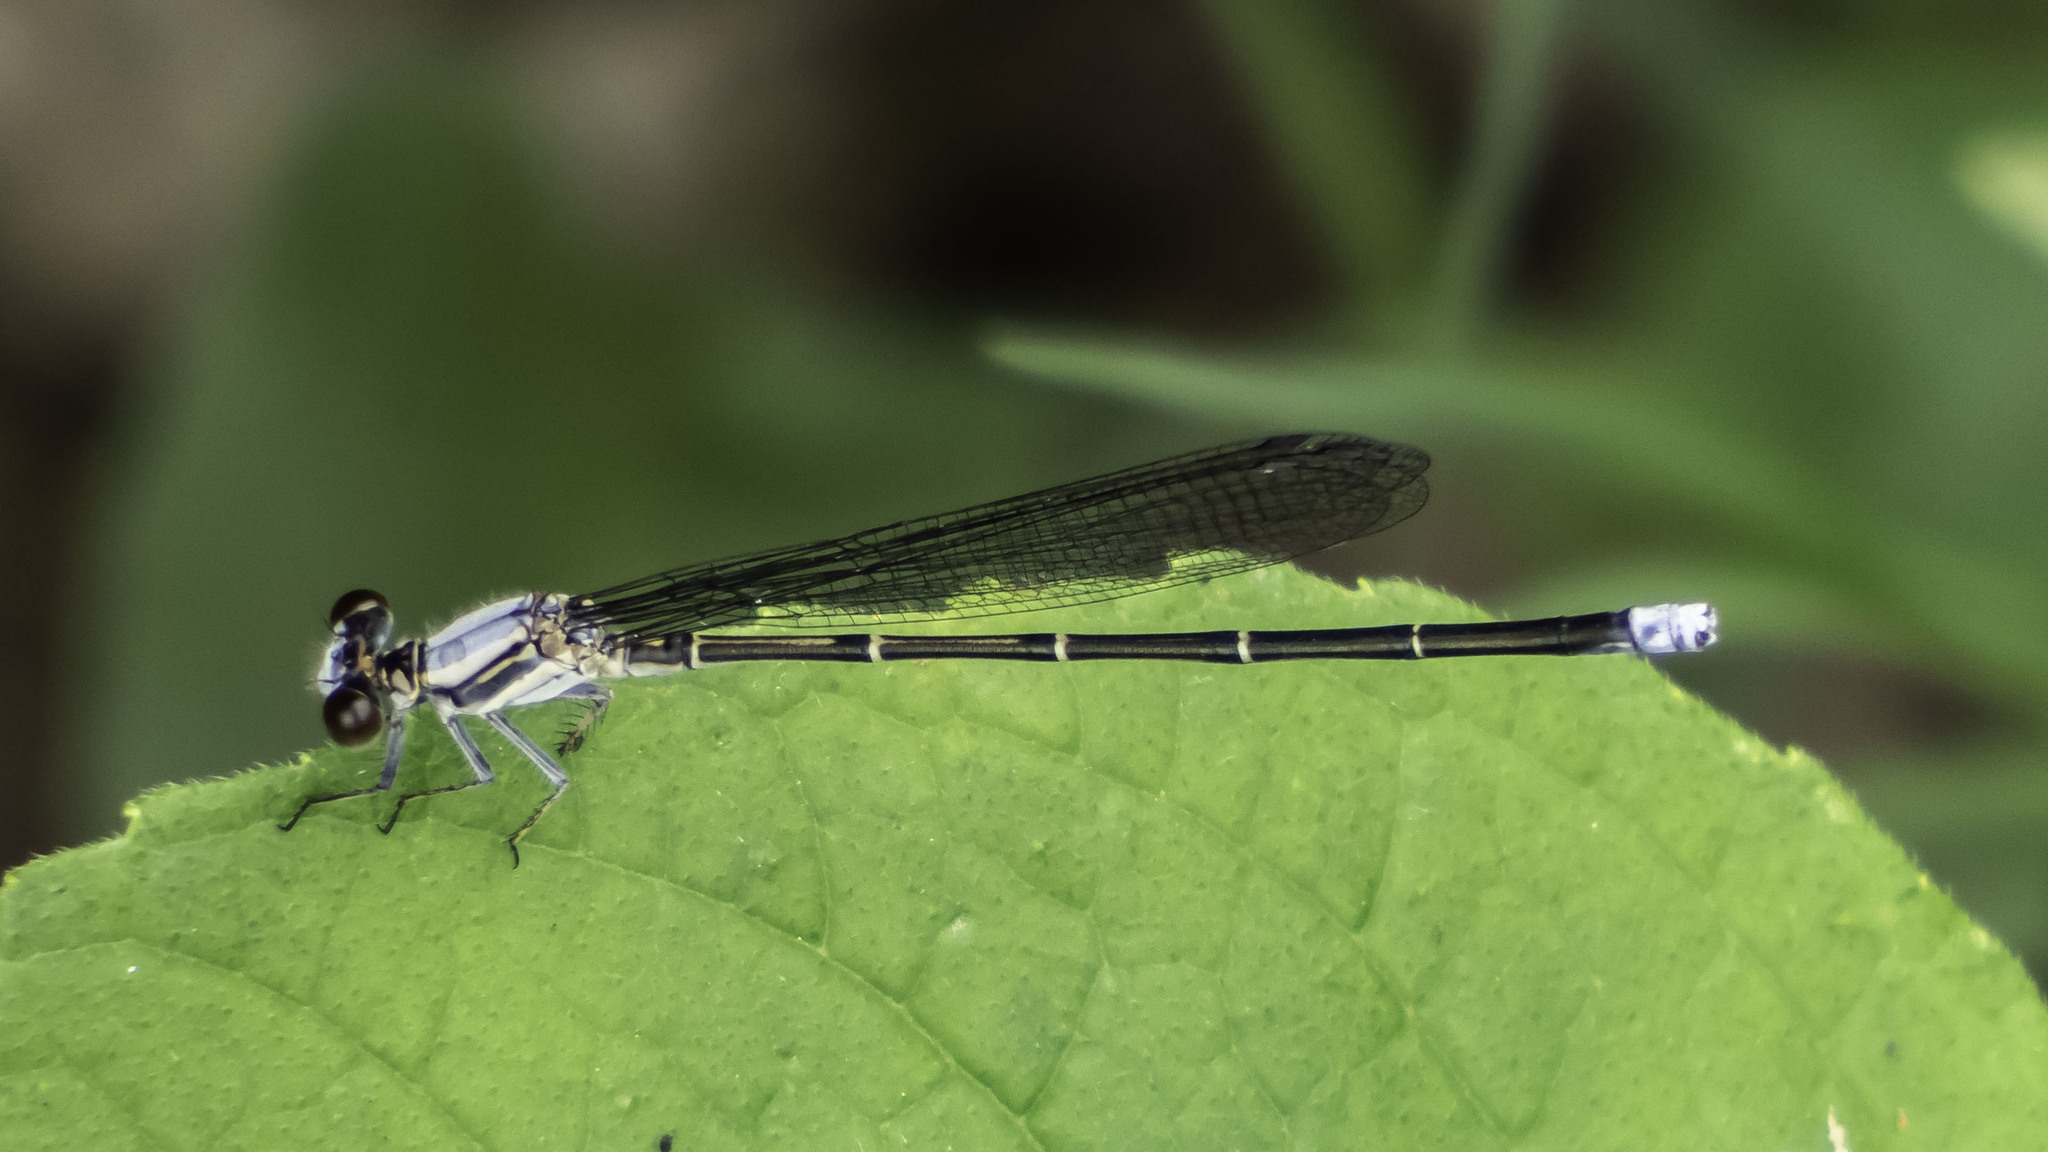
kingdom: Animalia
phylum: Arthropoda
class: Insecta
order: Odonata
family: Coenagrionidae
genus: Argia
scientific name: Argia moesta
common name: Powdered dancer
